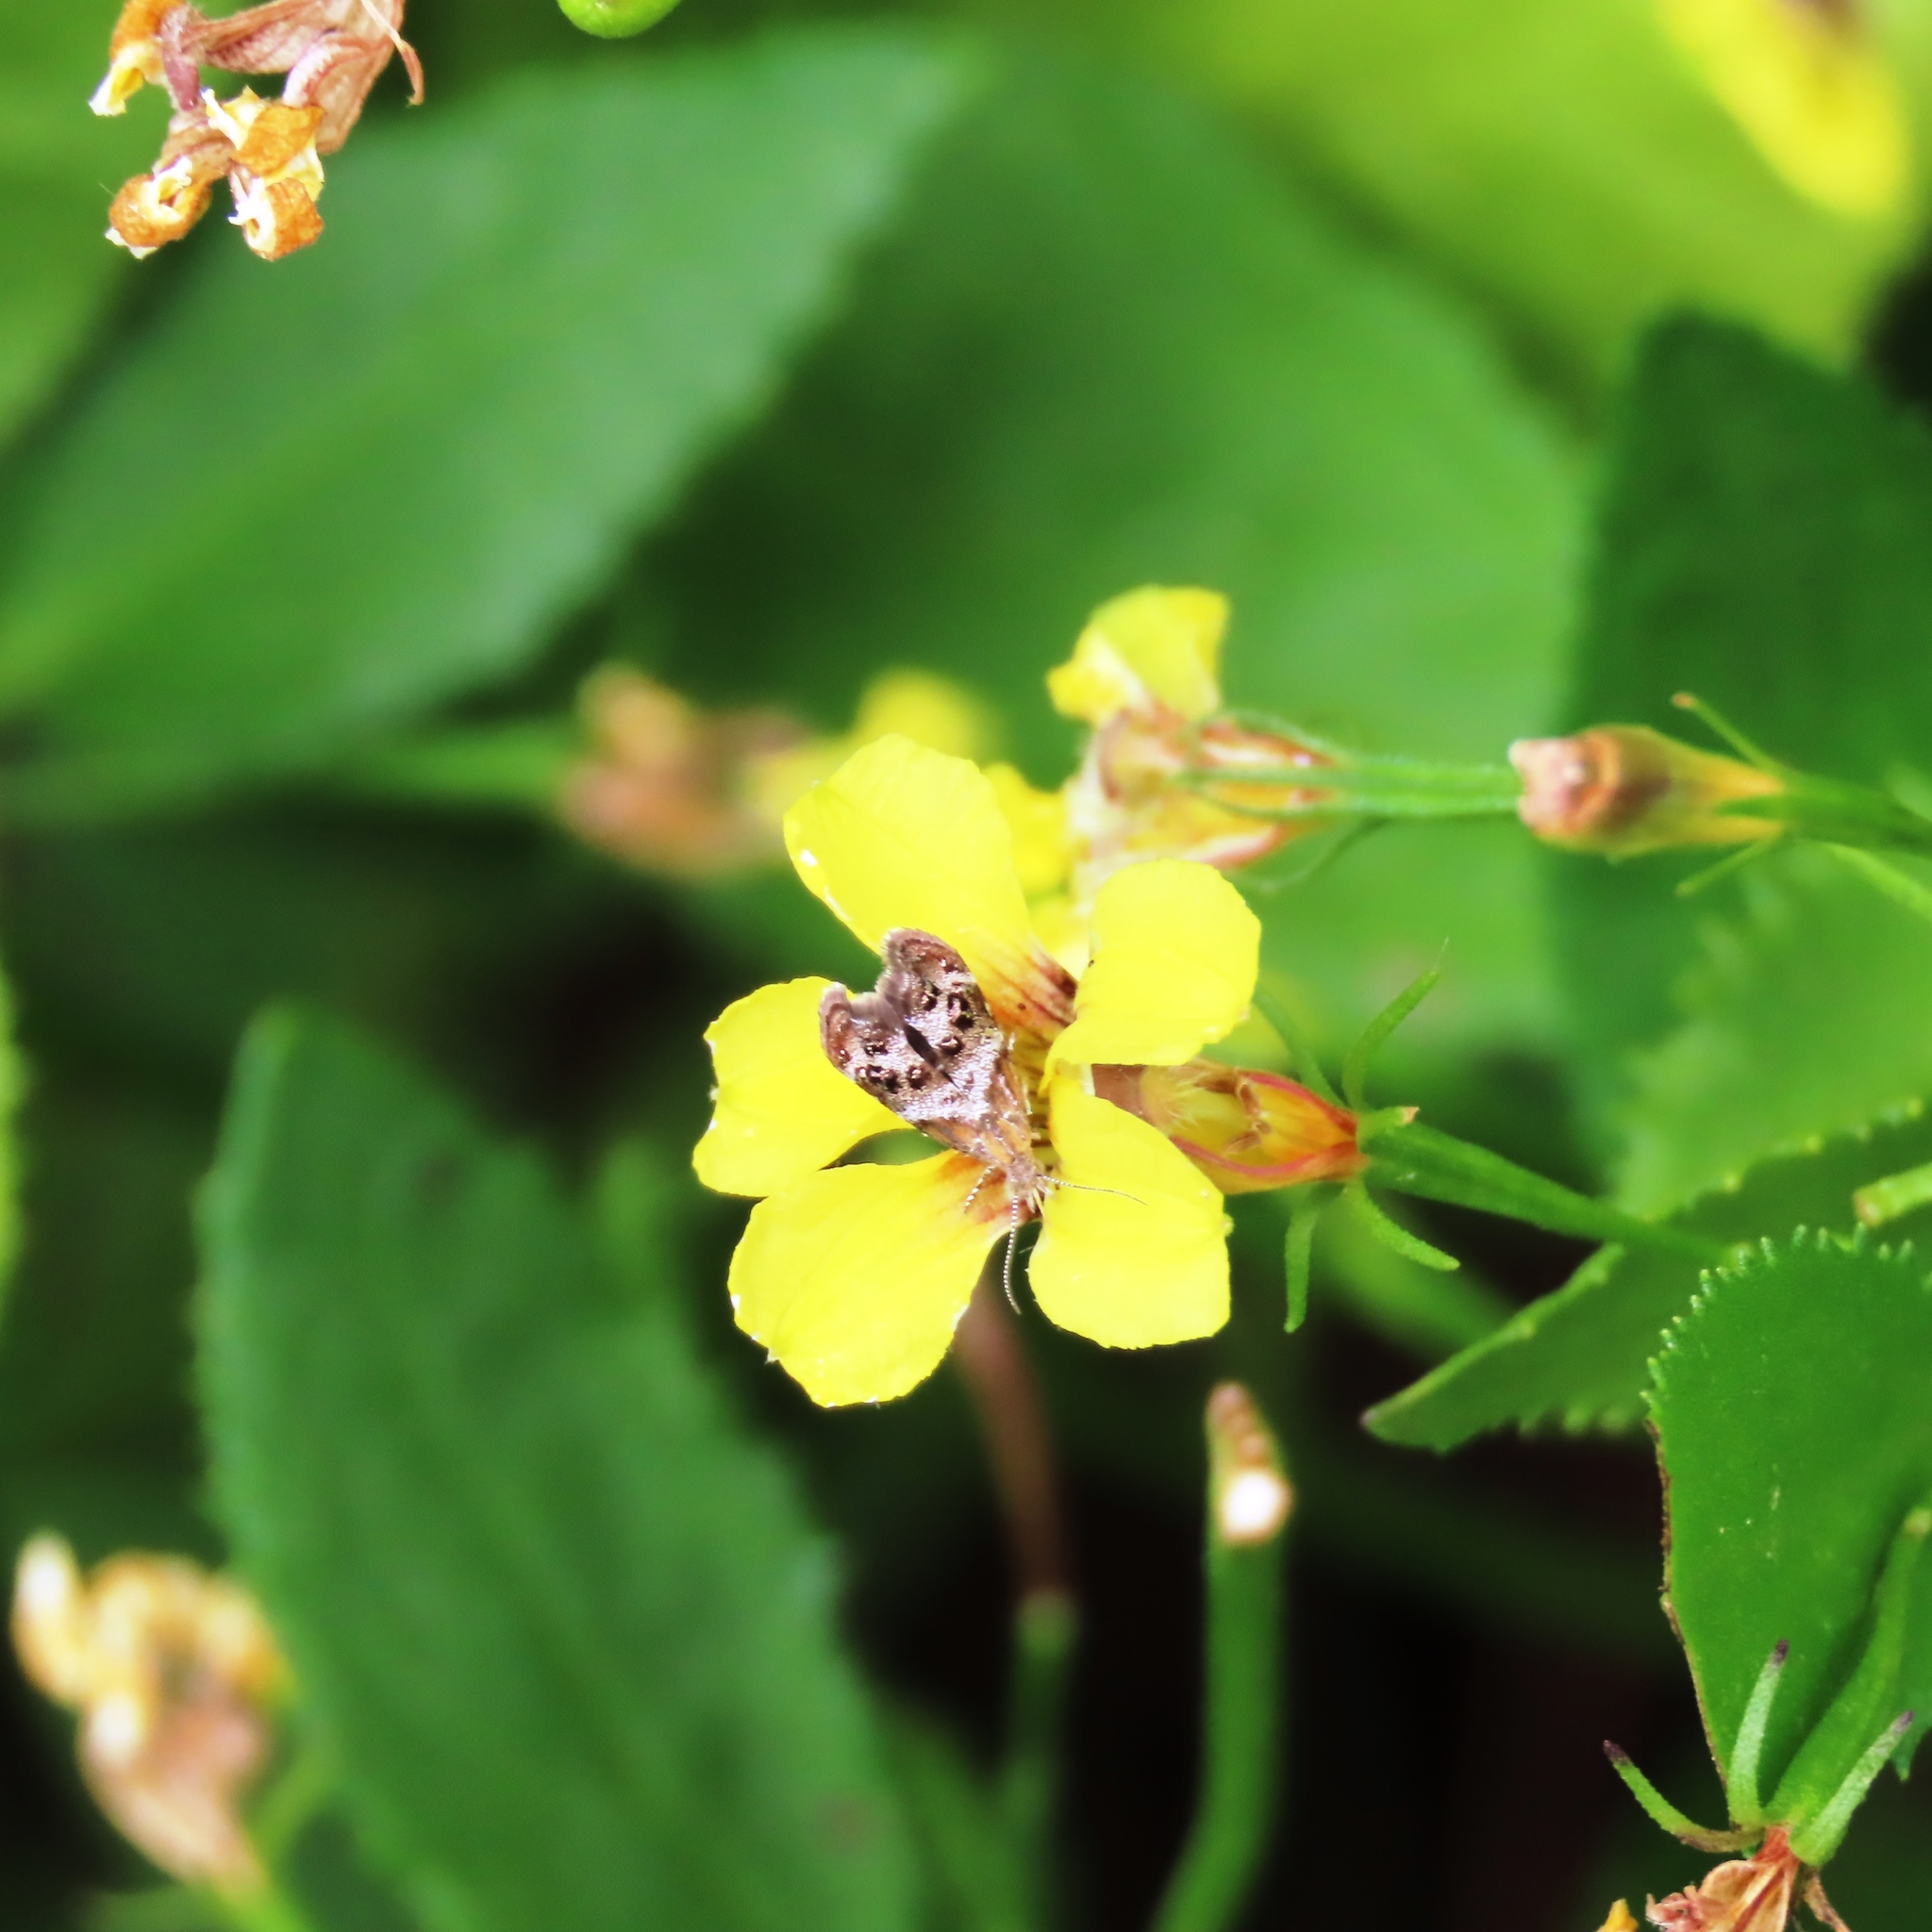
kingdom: Animalia
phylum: Arthropoda
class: Insecta
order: Lepidoptera
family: Choreutidae
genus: Tebenna
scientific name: Tebenna micalis
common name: Vagrant twitcher
